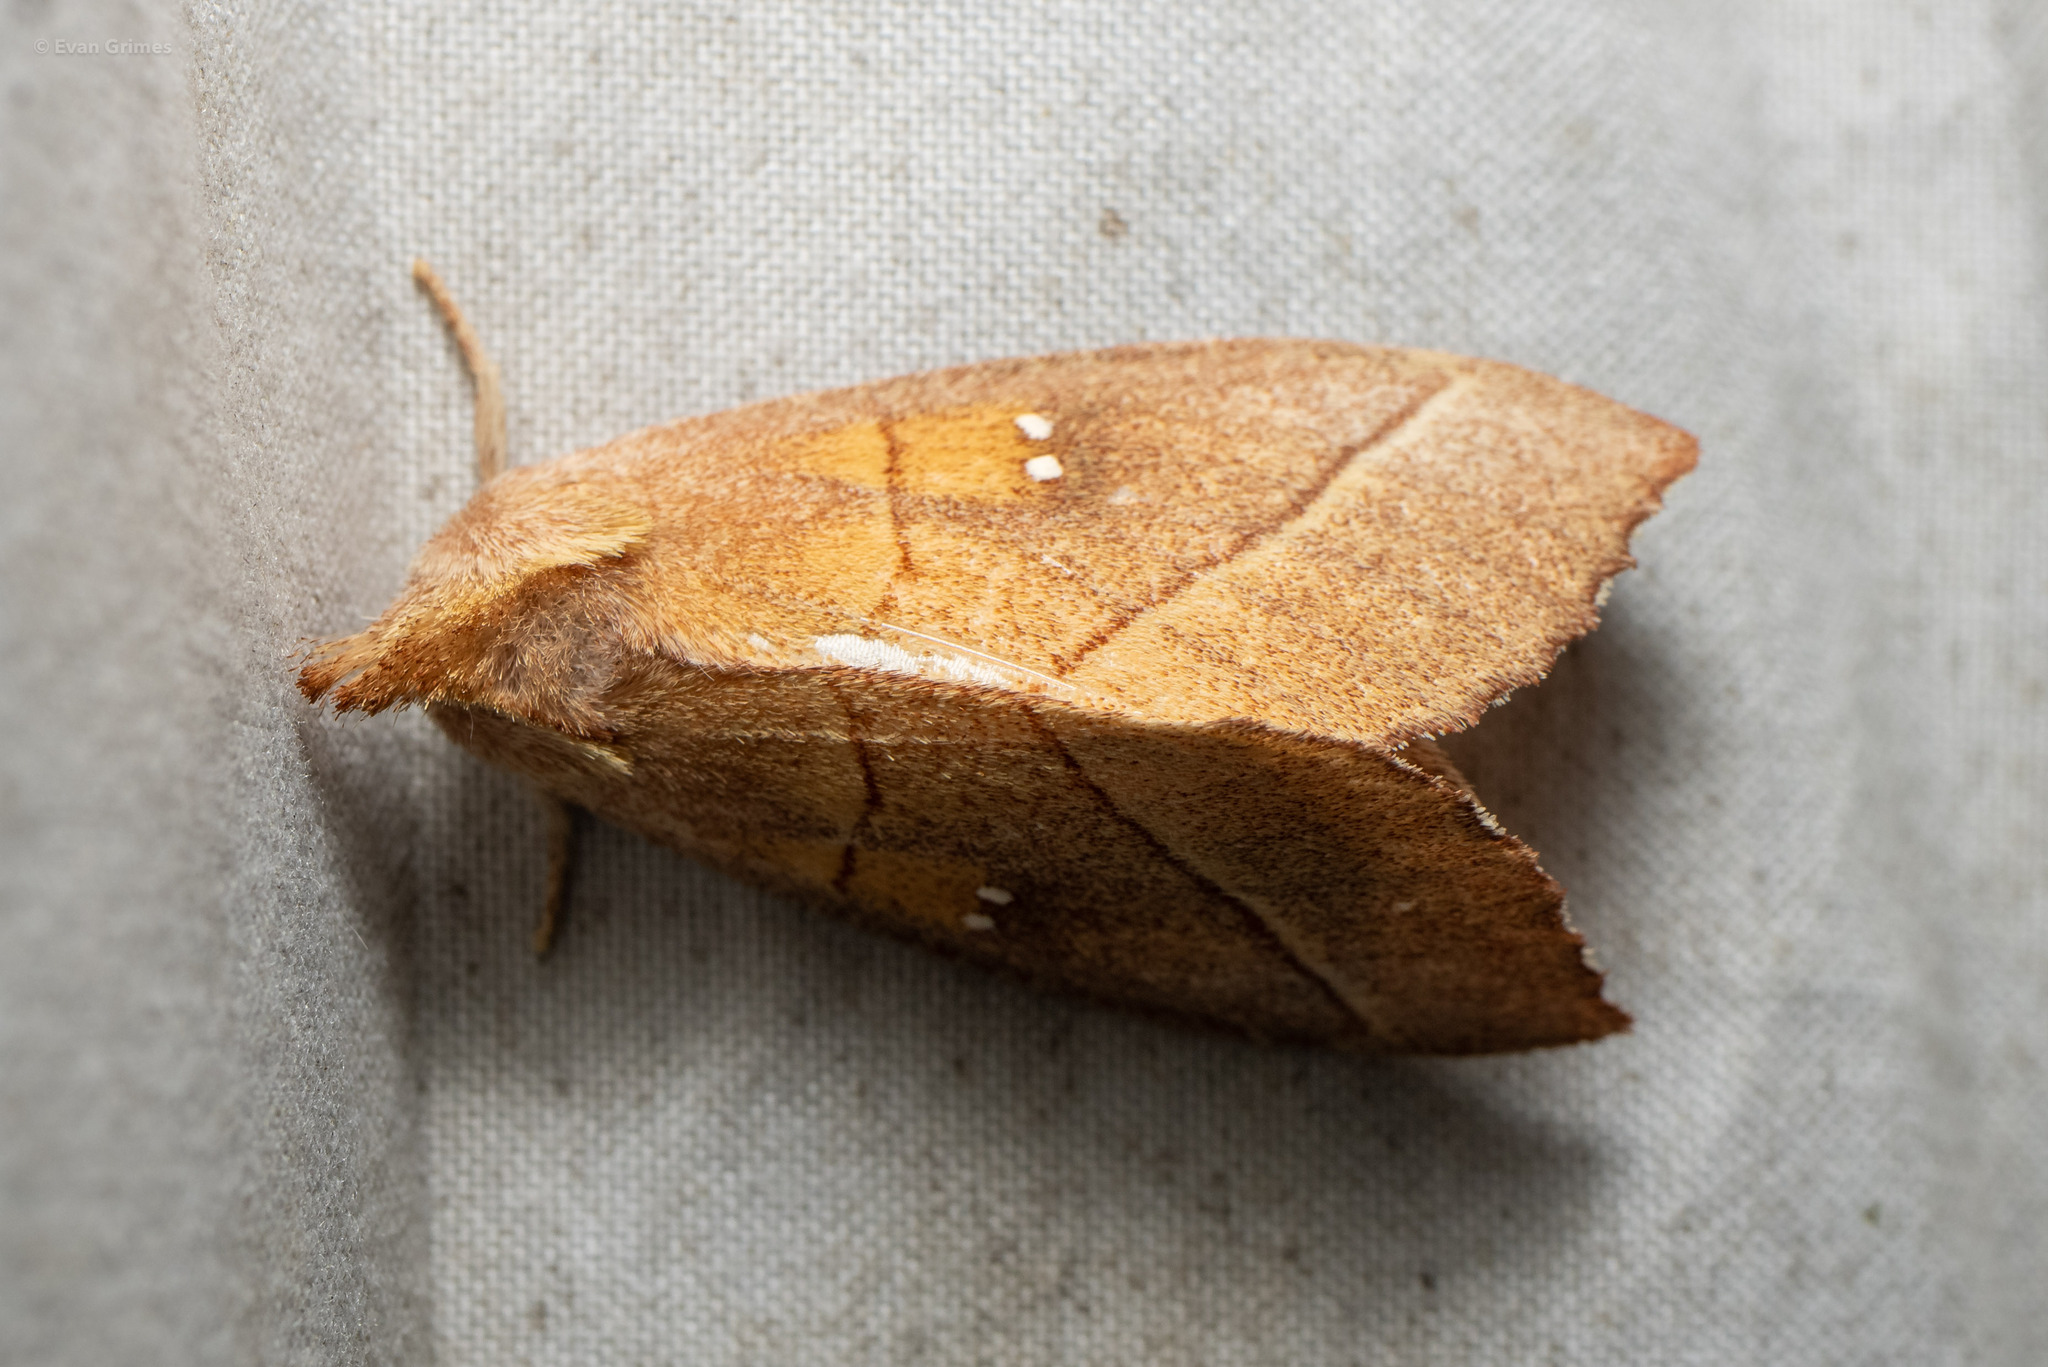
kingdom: Animalia
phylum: Arthropoda
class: Insecta
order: Lepidoptera
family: Notodontidae
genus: Nadata
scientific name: Nadata gibbosa
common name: White-dotted prominent
